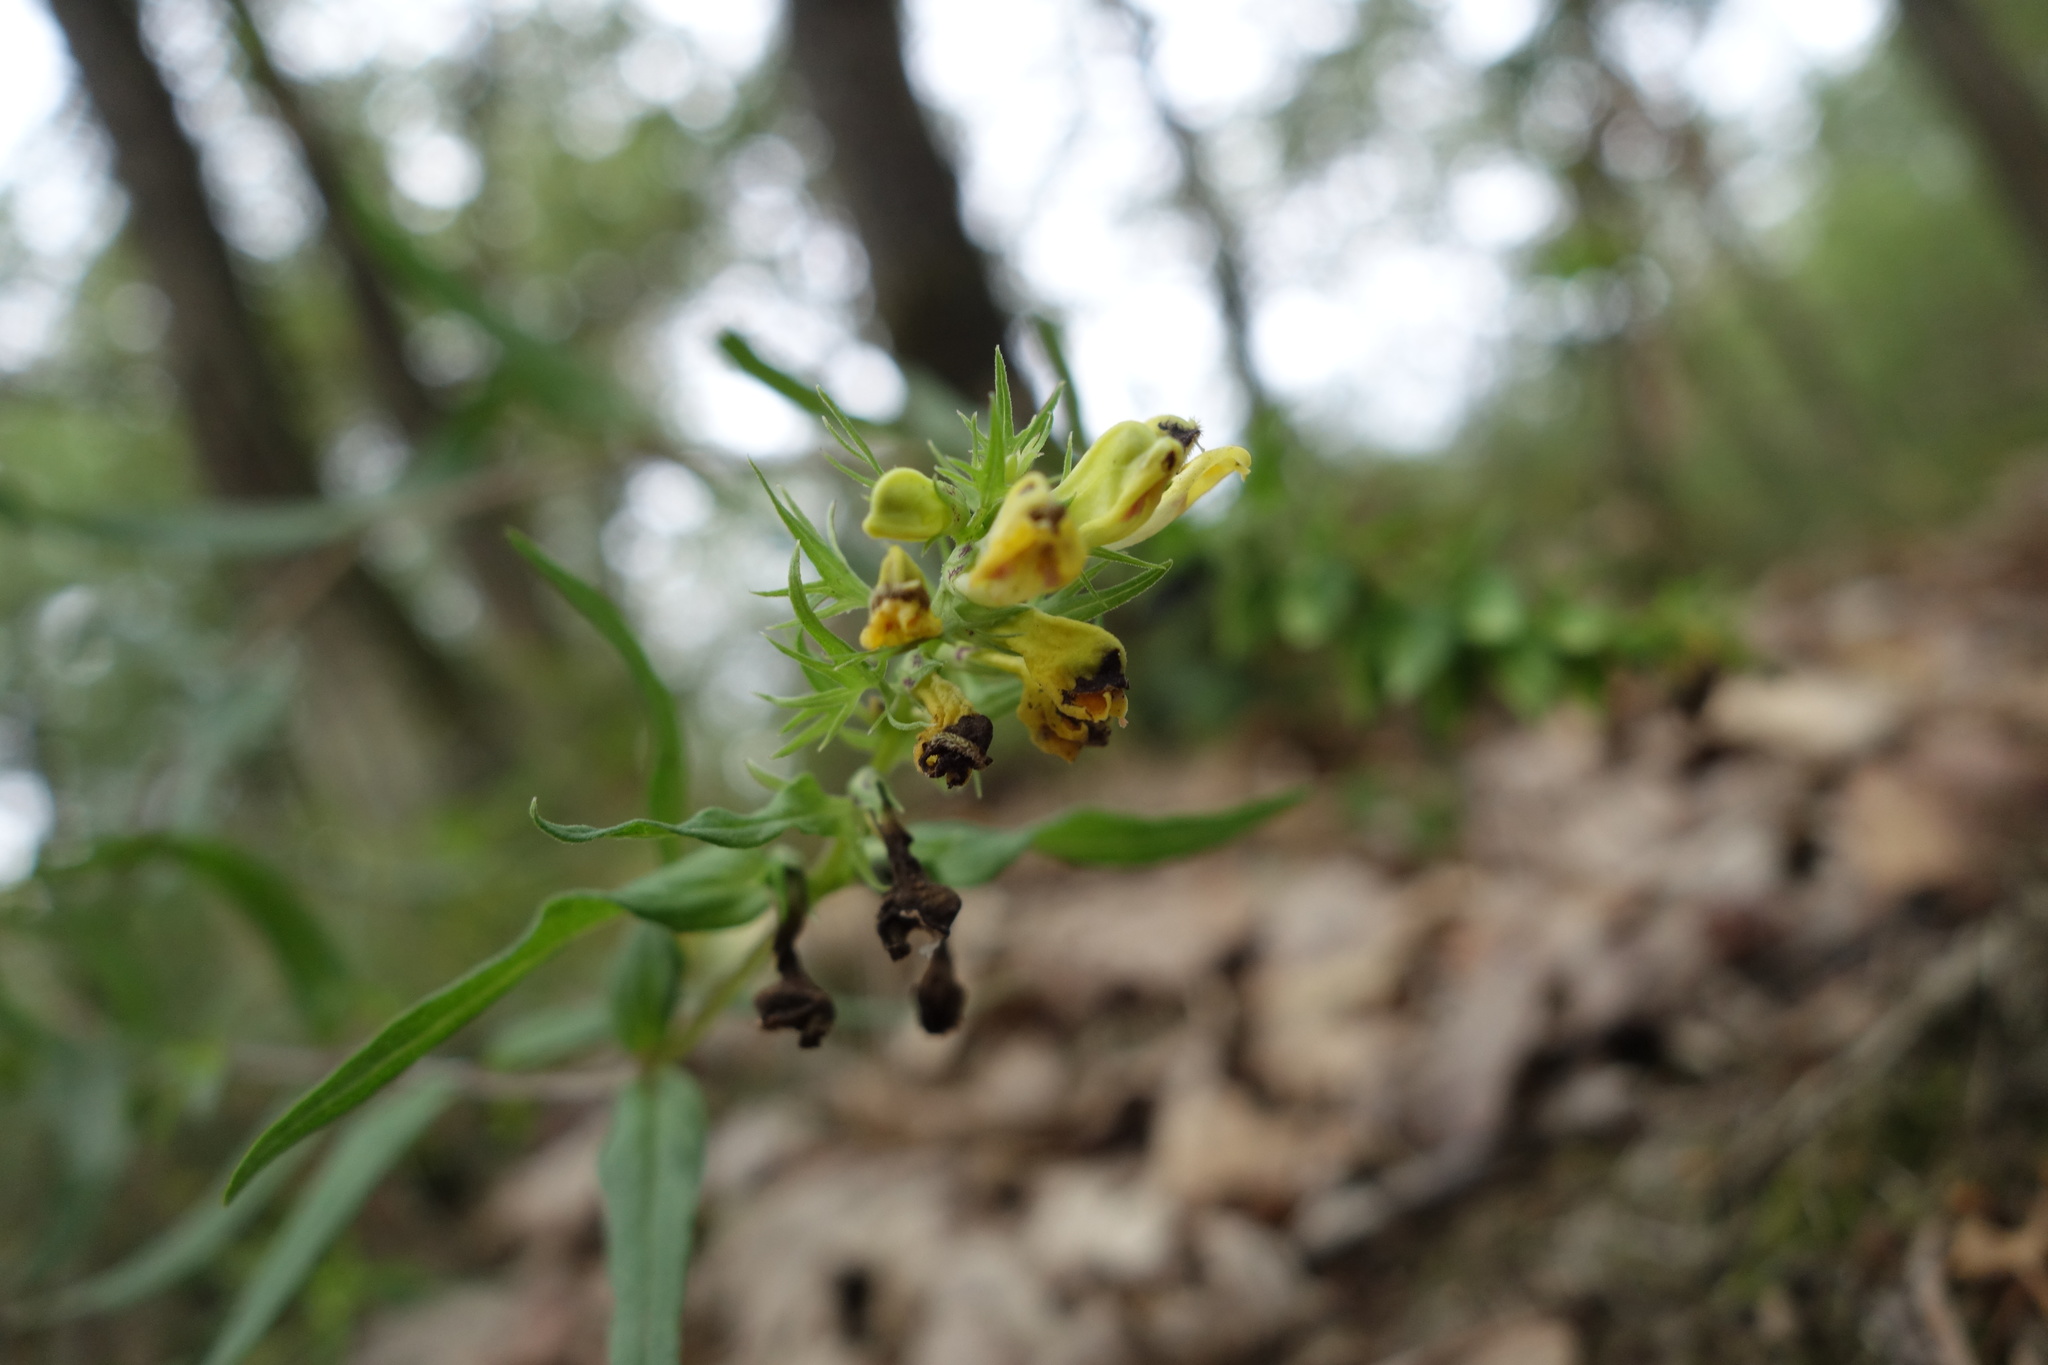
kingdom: Plantae
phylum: Tracheophyta
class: Magnoliopsida
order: Lamiales
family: Orobanchaceae
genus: Melampyrum
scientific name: Melampyrum pratense
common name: Common cow-wheat
